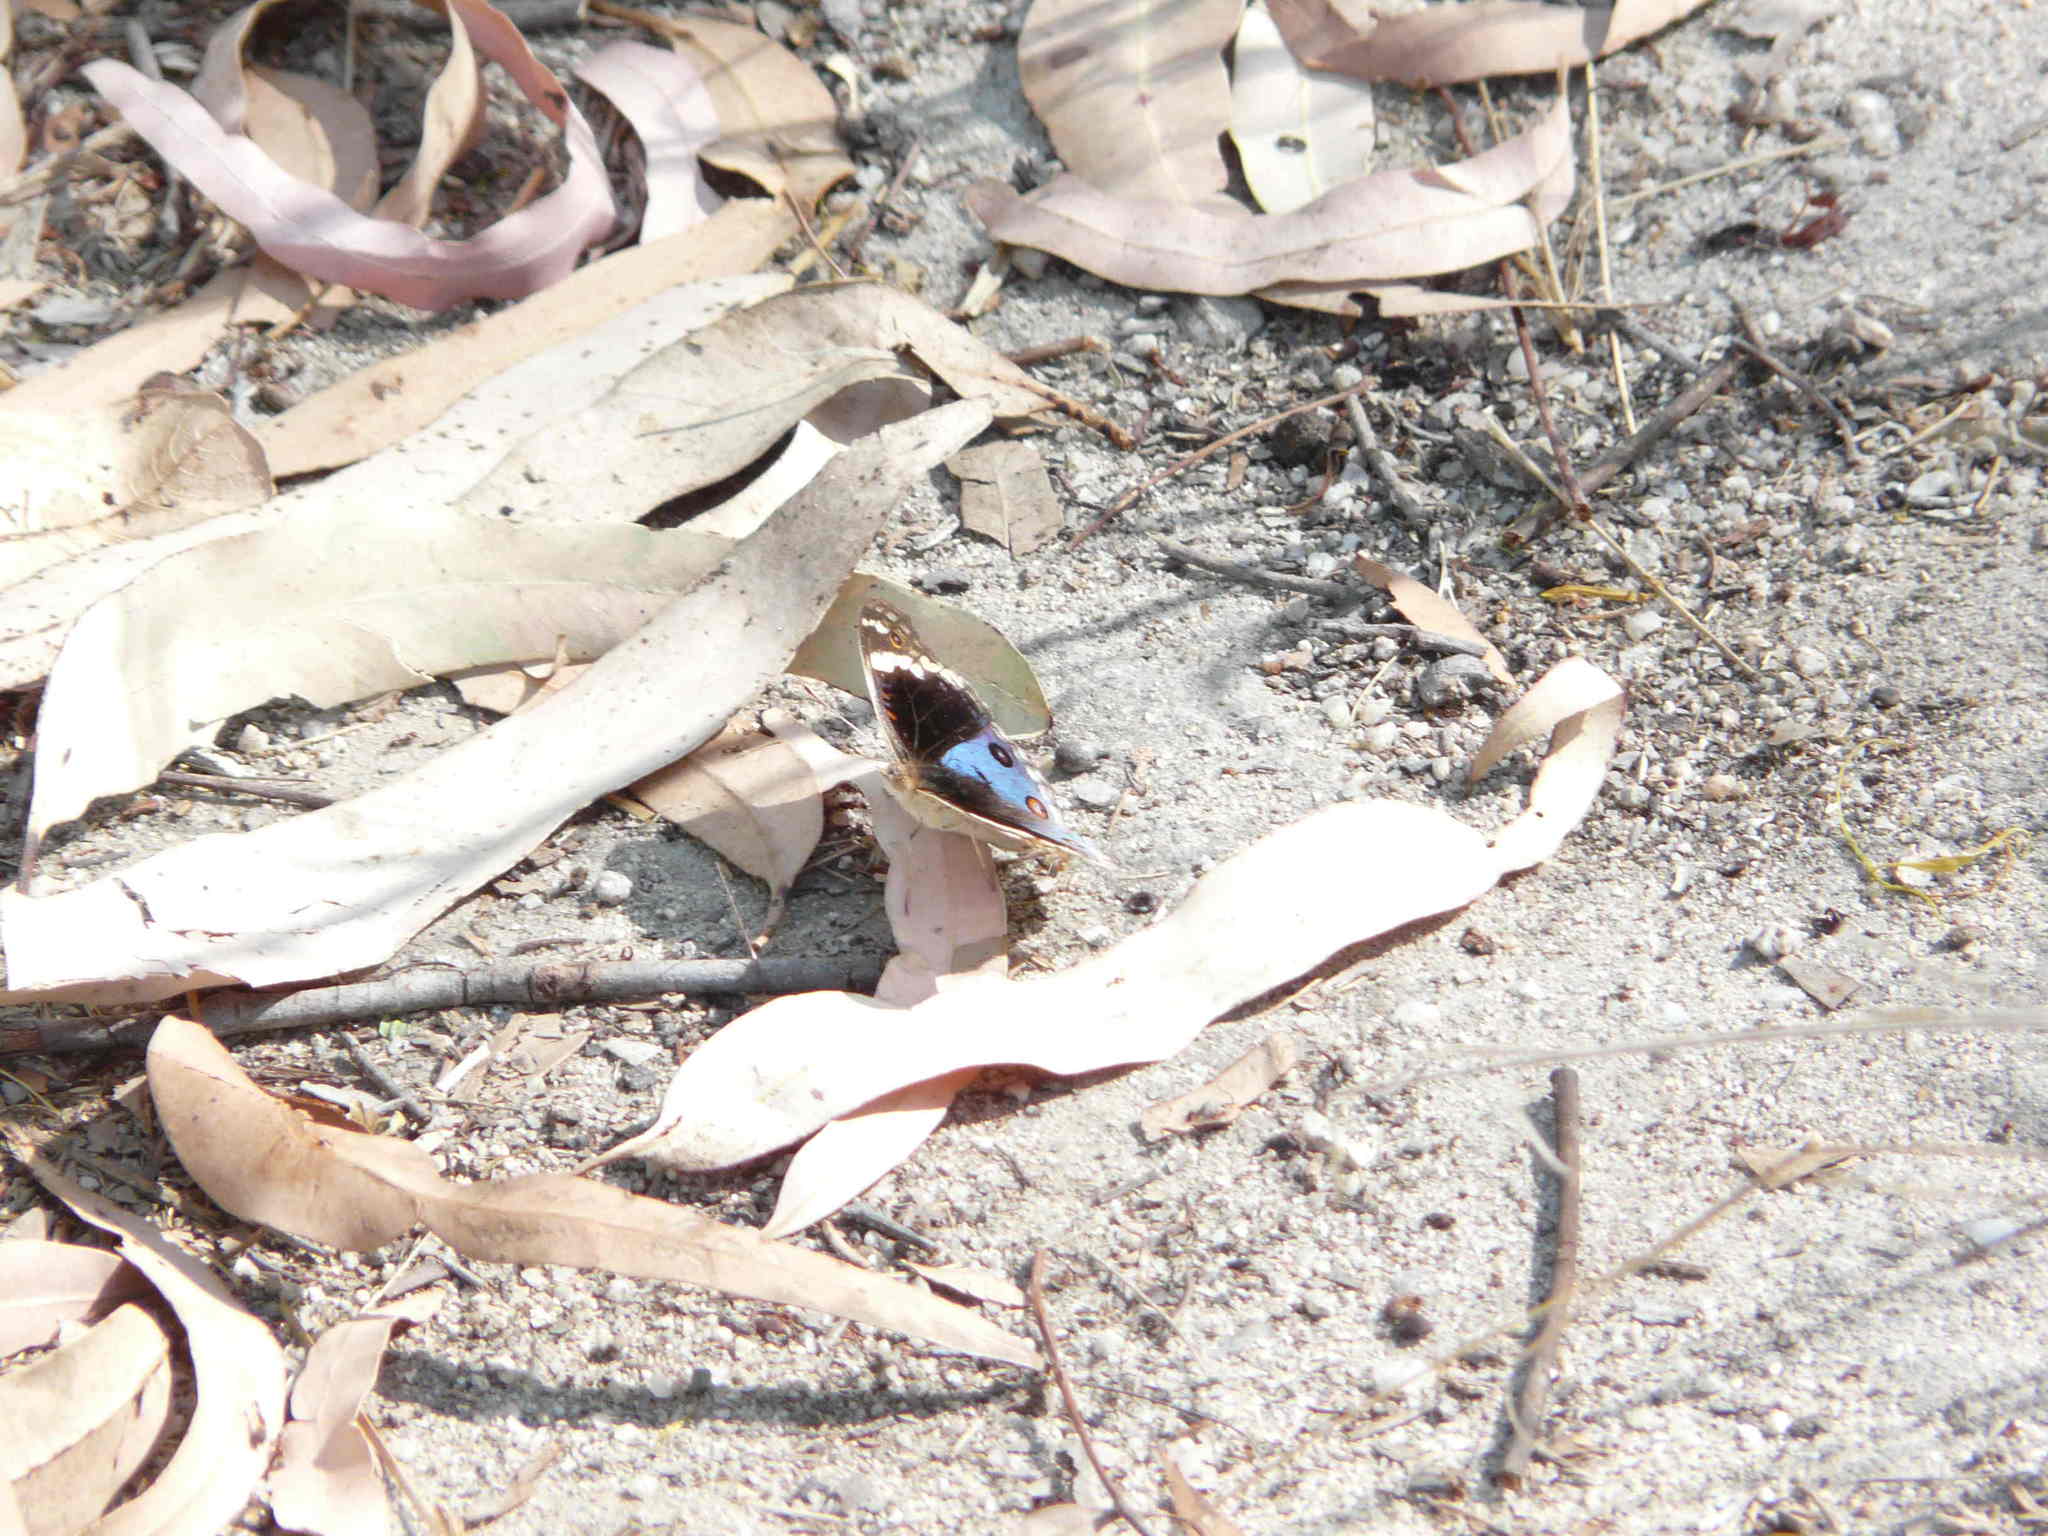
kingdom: Animalia
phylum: Arthropoda
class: Insecta
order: Lepidoptera
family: Nymphalidae
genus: Junonia
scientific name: Junonia orithya
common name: Blue pansy
